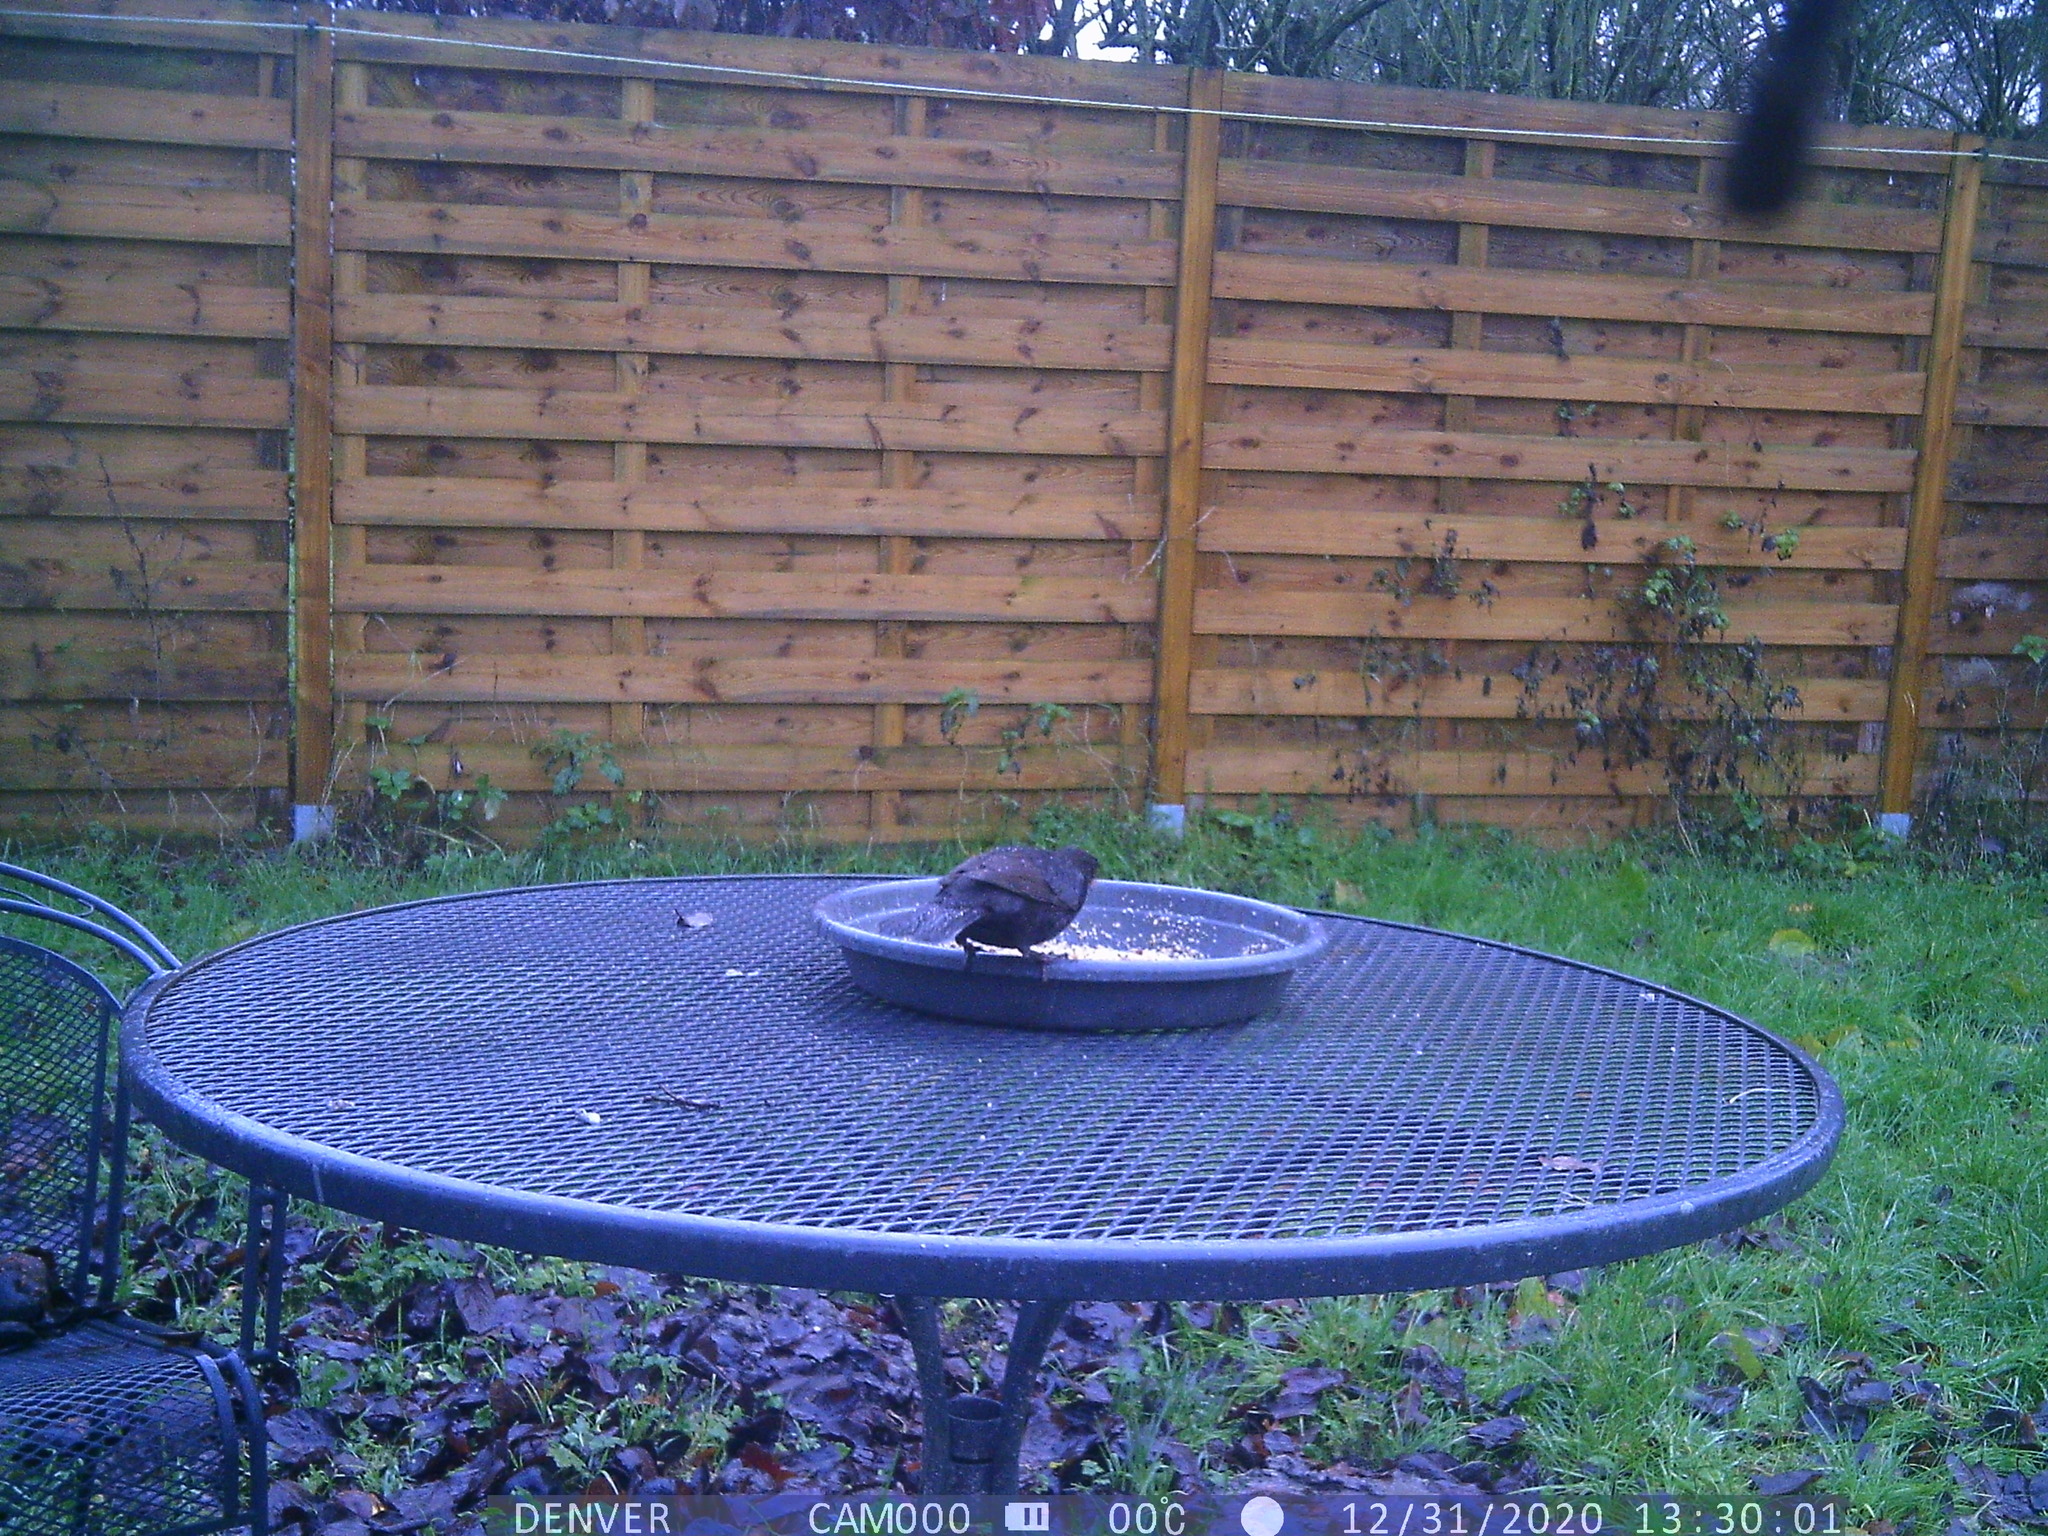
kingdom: Animalia
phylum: Chordata
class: Aves
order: Passeriformes
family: Turdidae
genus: Turdus
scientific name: Turdus merula
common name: Common blackbird
